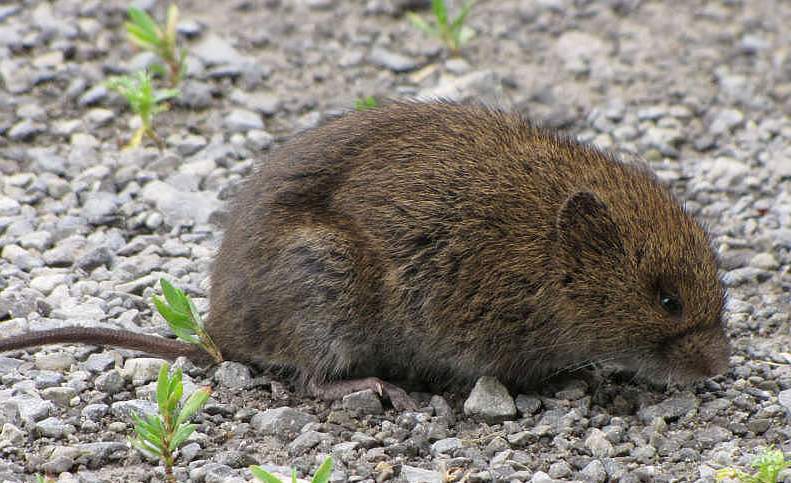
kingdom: Animalia
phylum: Chordata
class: Mammalia
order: Rodentia
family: Cricetidae
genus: Microtus
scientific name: Microtus pennsylvanicus
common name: Meadow vole
